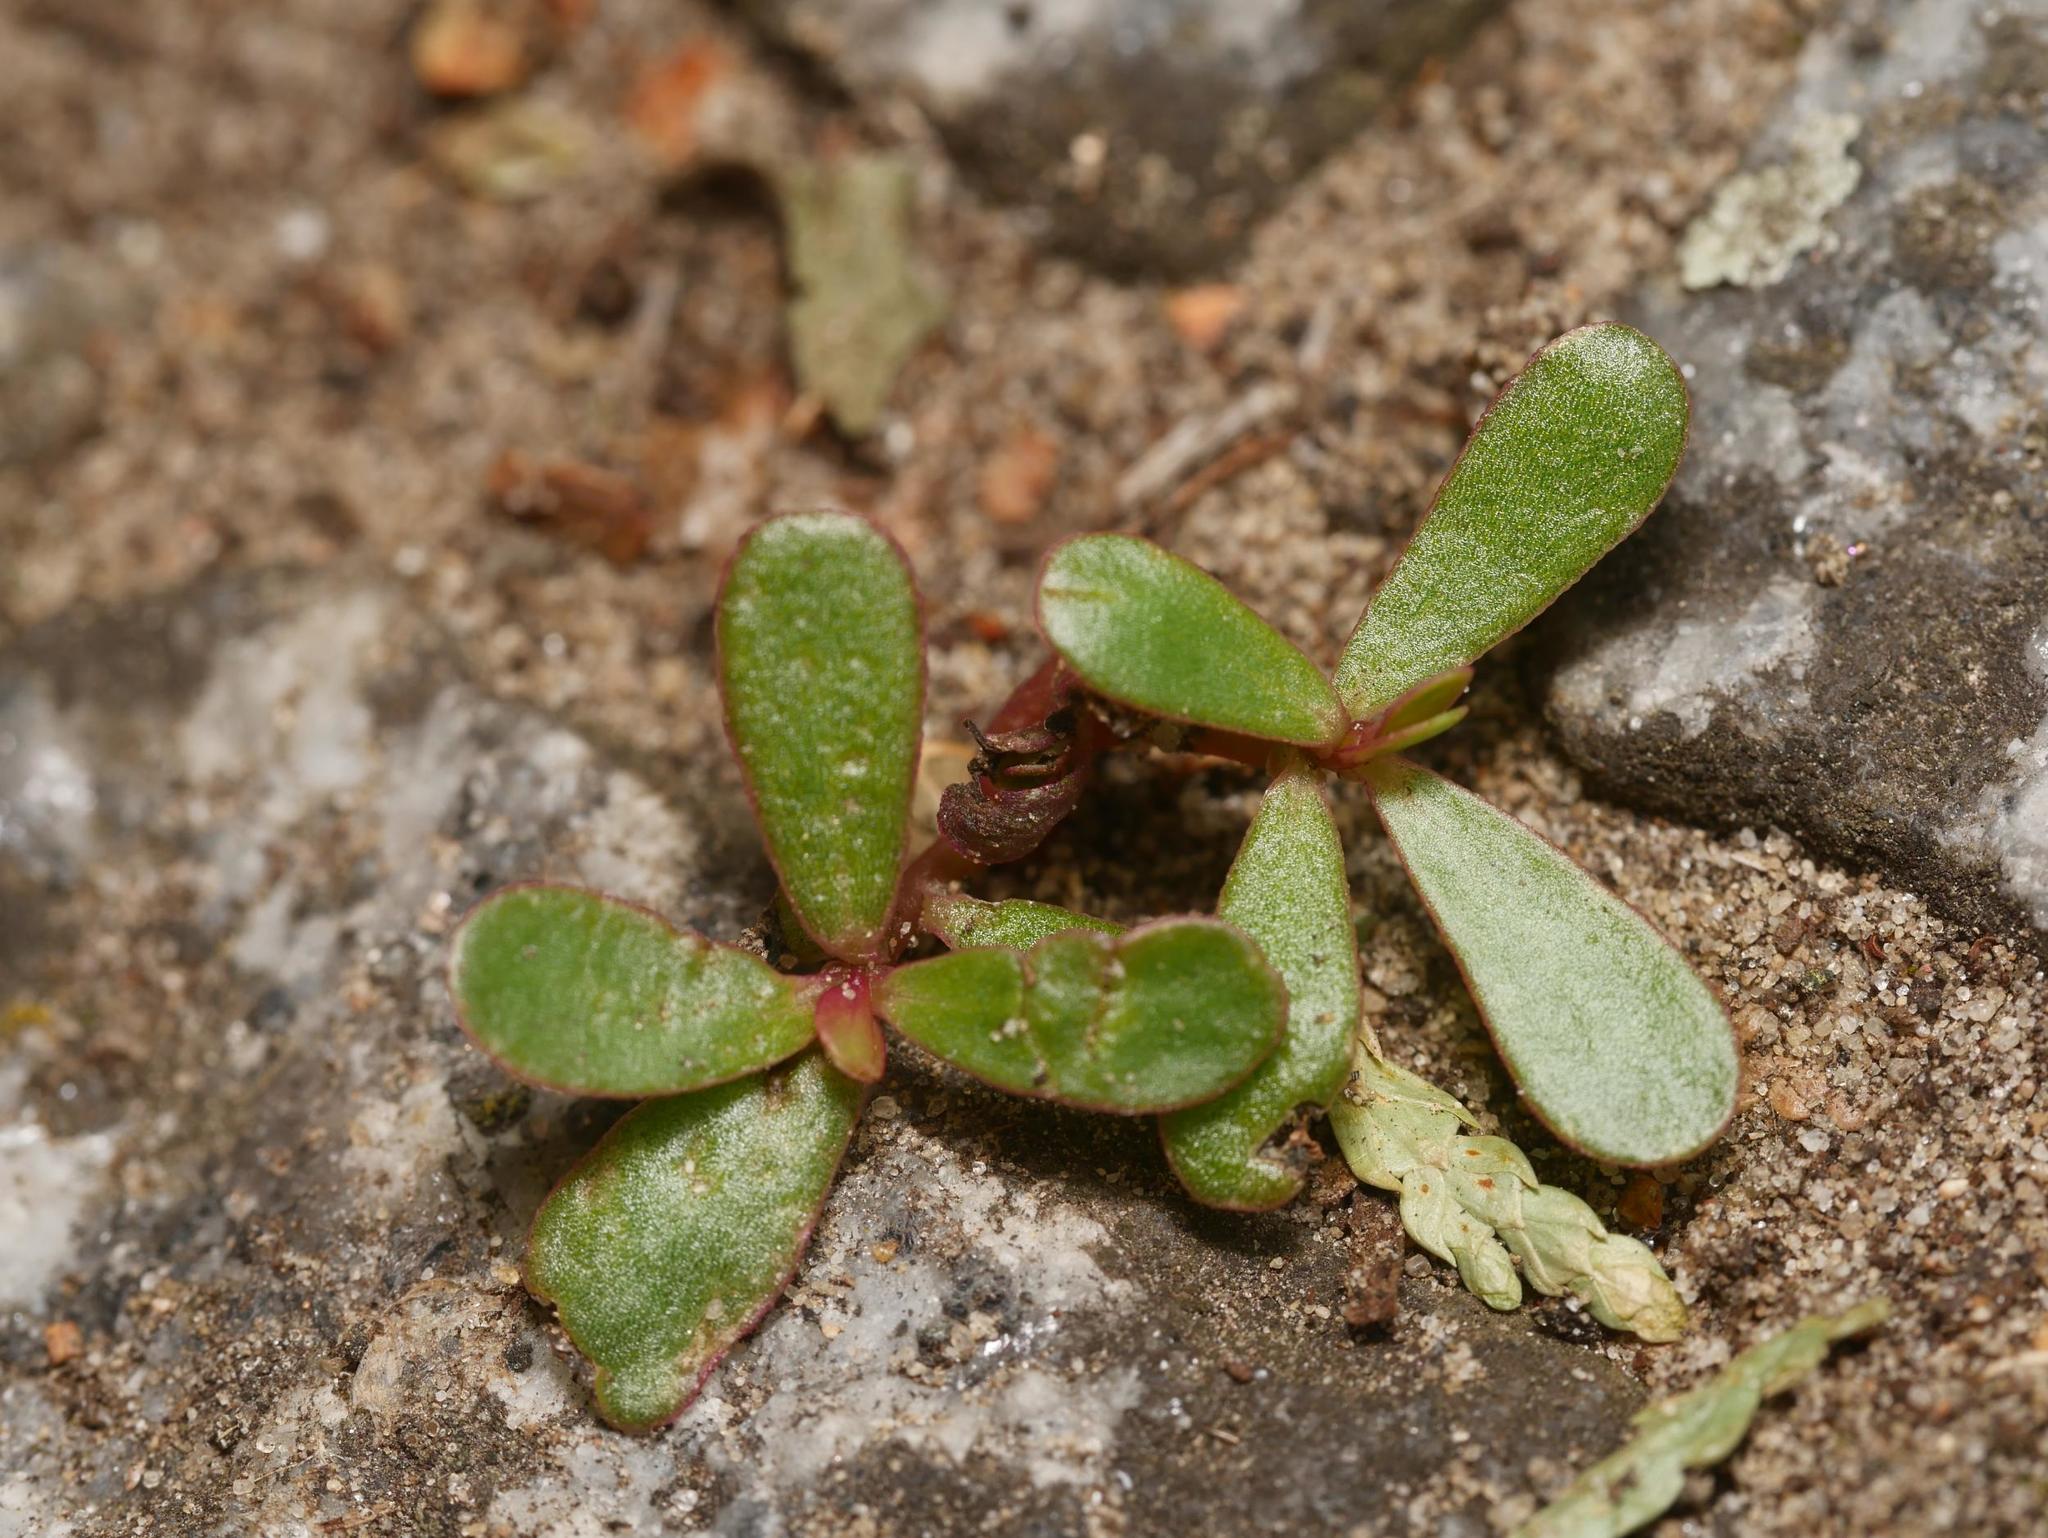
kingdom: Plantae
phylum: Tracheophyta
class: Magnoliopsida
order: Caryophyllales
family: Portulacaceae
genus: Portulaca
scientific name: Portulaca oleracea
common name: Common purslane
